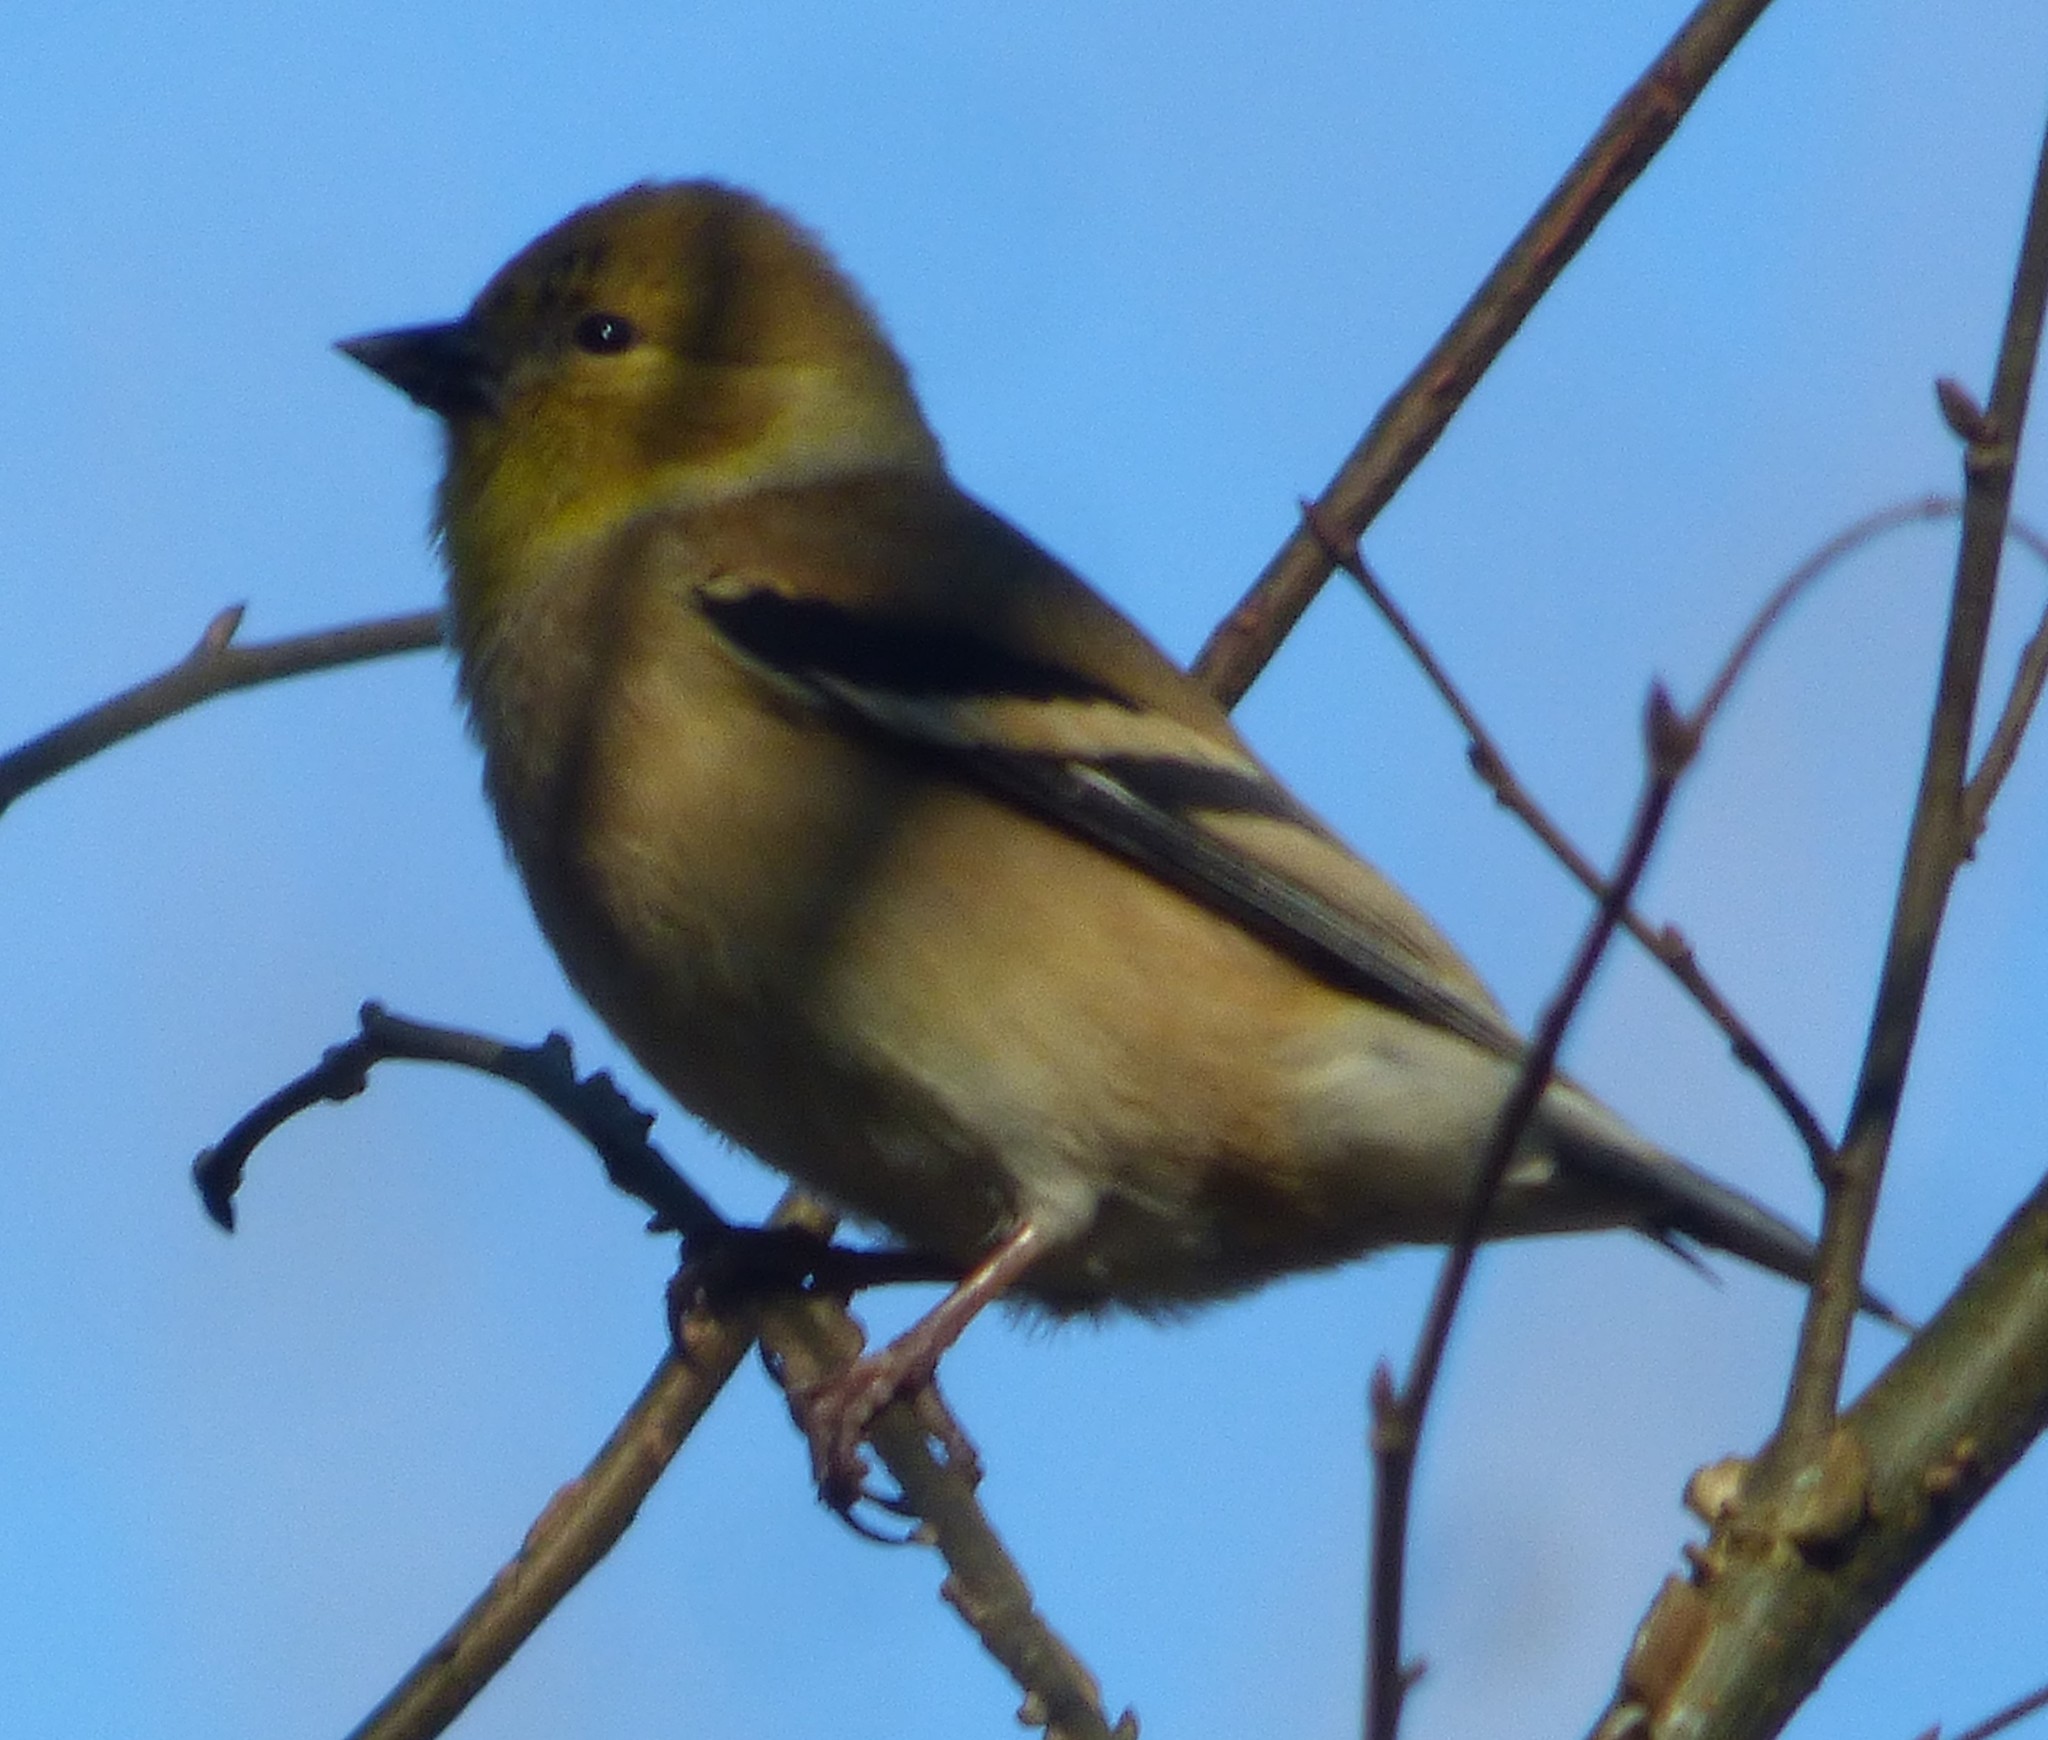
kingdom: Animalia
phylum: Chordata
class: Aves
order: Passeriformes
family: Fringillidae
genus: Spinus
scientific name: Spinus tristis
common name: American goldfinch
